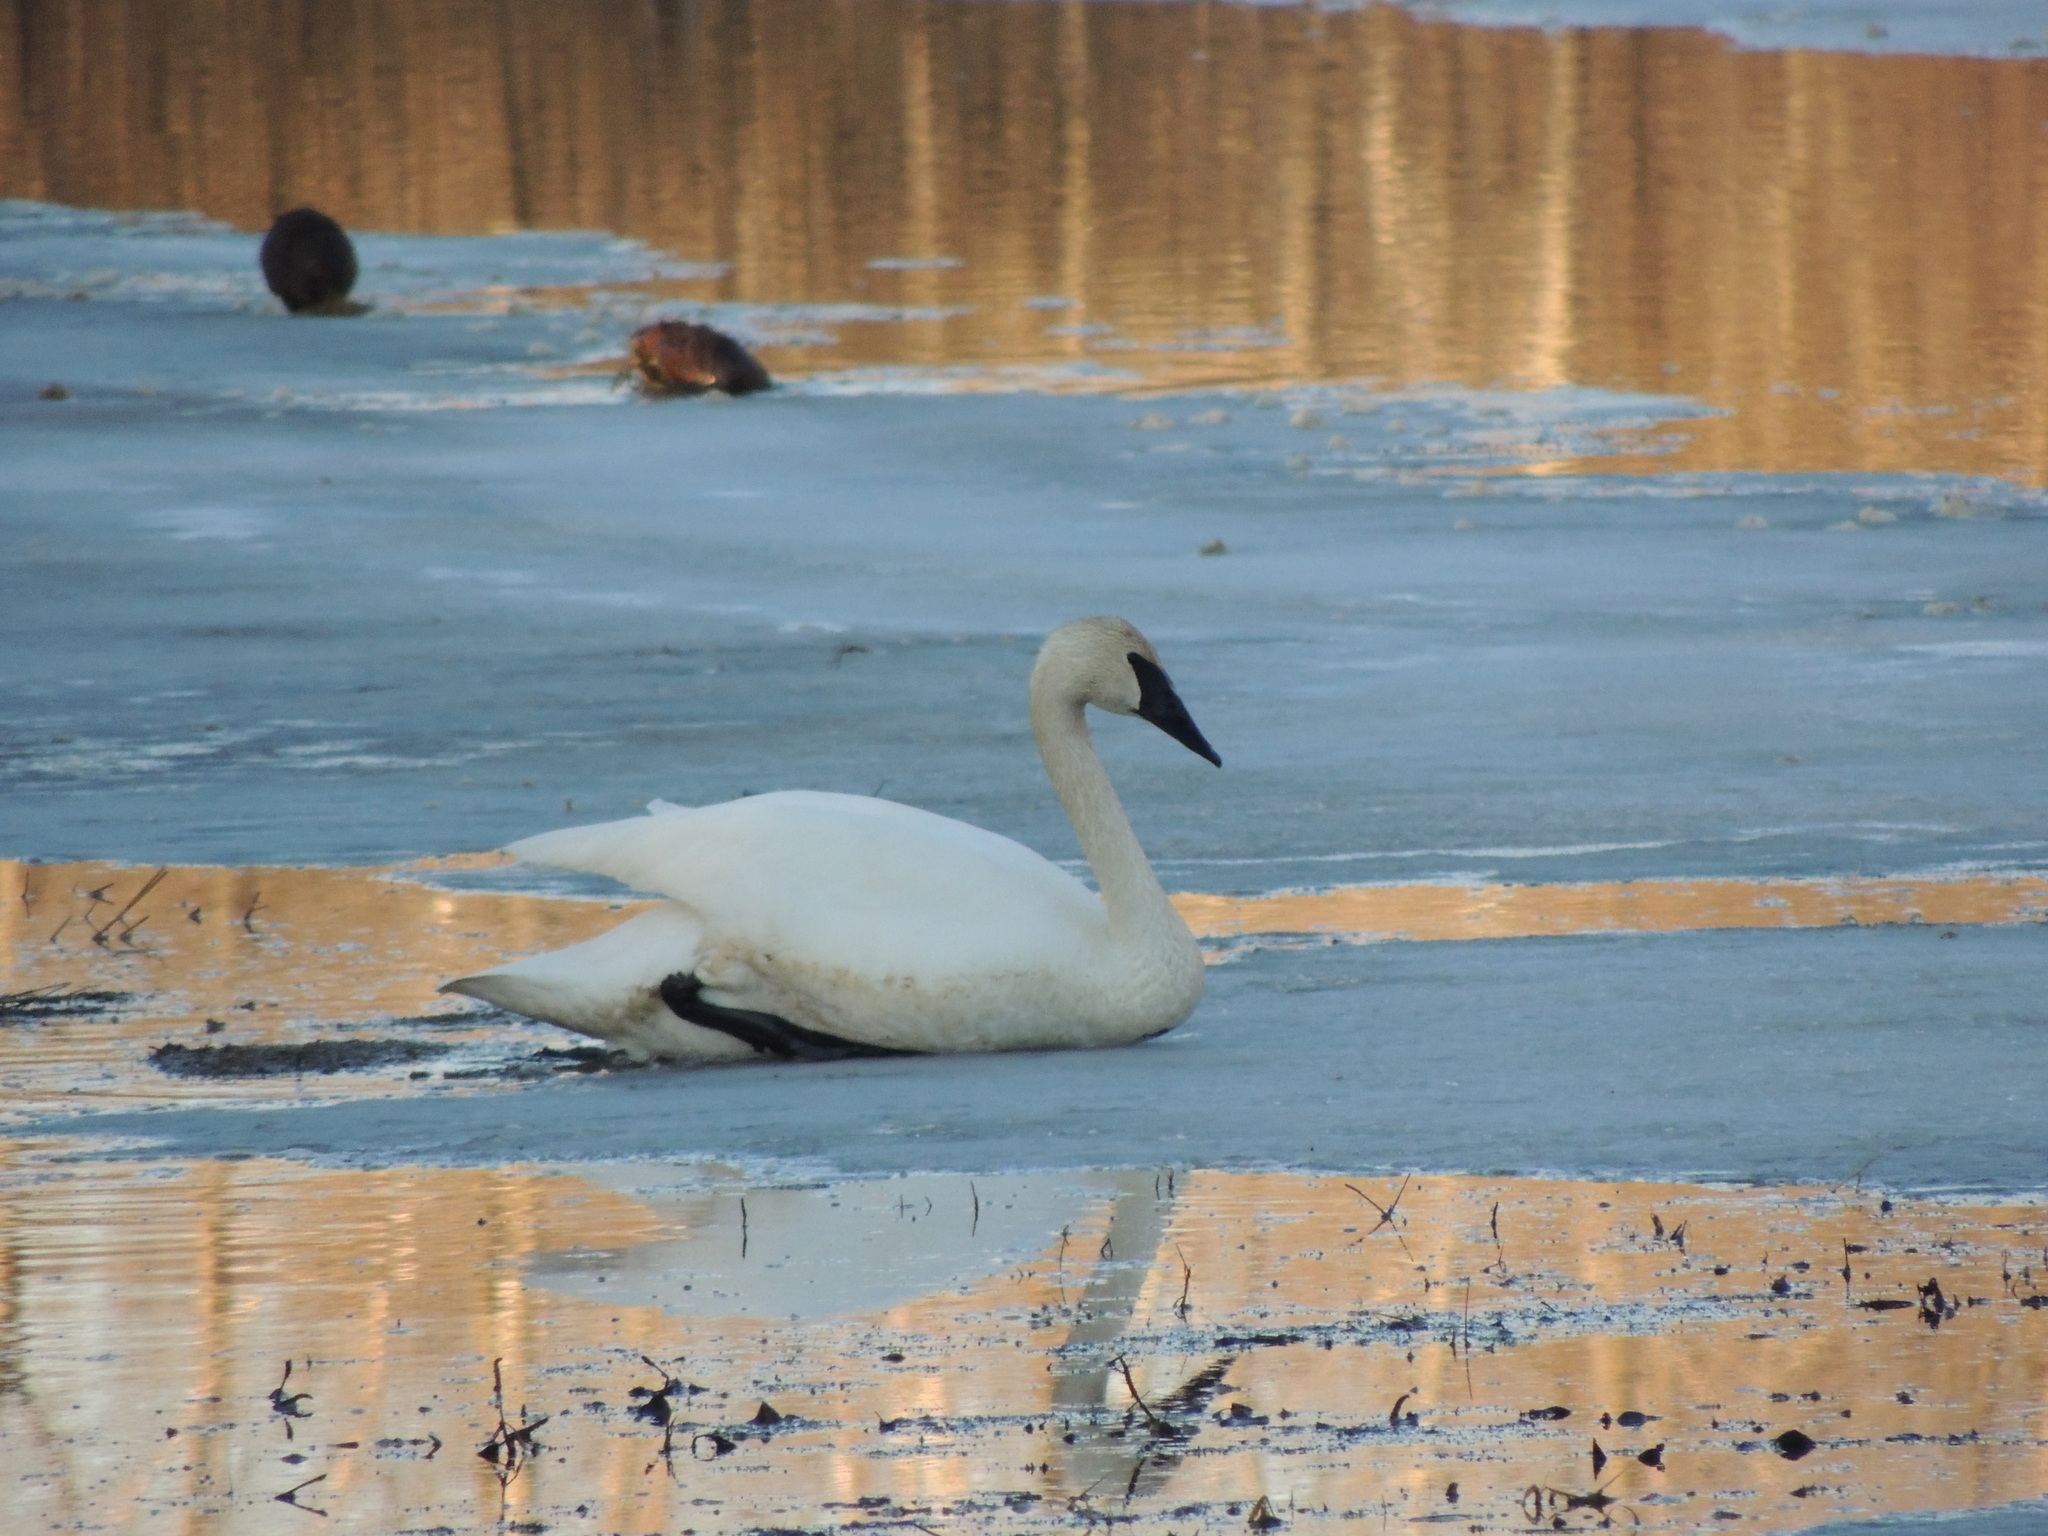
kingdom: Animalia
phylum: Chordata
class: Aves
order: Anseriformes
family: Anatidae
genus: Cygnus
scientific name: Cygnus buccinator
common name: Trumpeter swan
